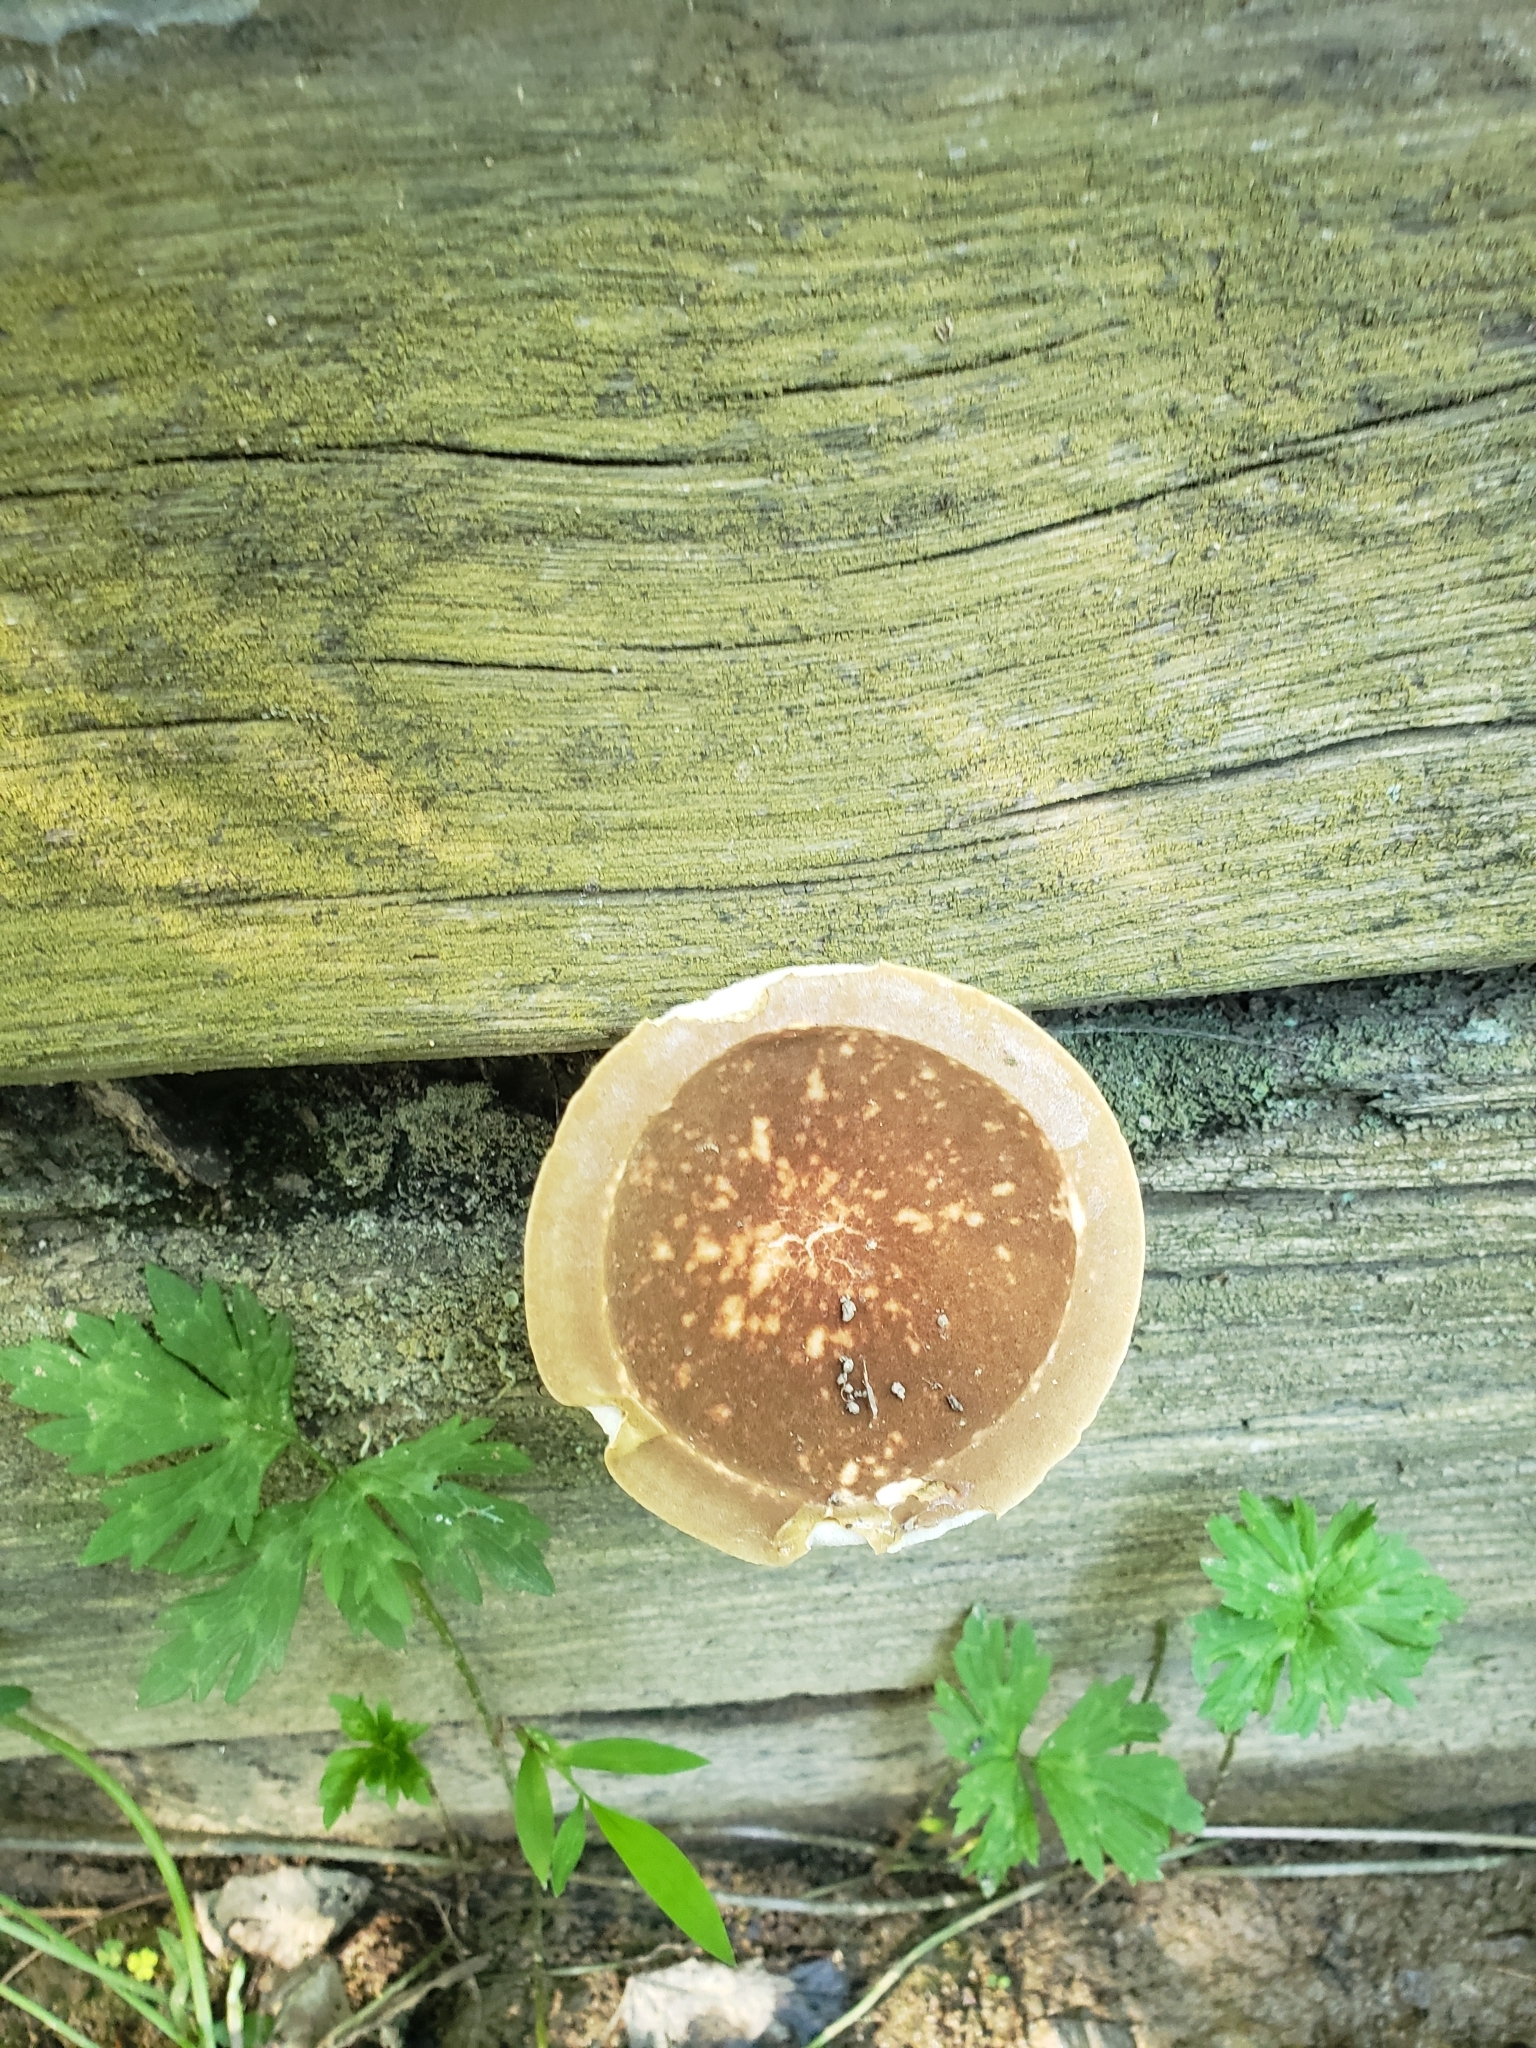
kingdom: Fungi
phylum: Basidiomycota
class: Agaricomycetes
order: Boletales
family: Boletaceae
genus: Tylopilus
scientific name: Tylopilus felleus
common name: Bitter bolete
